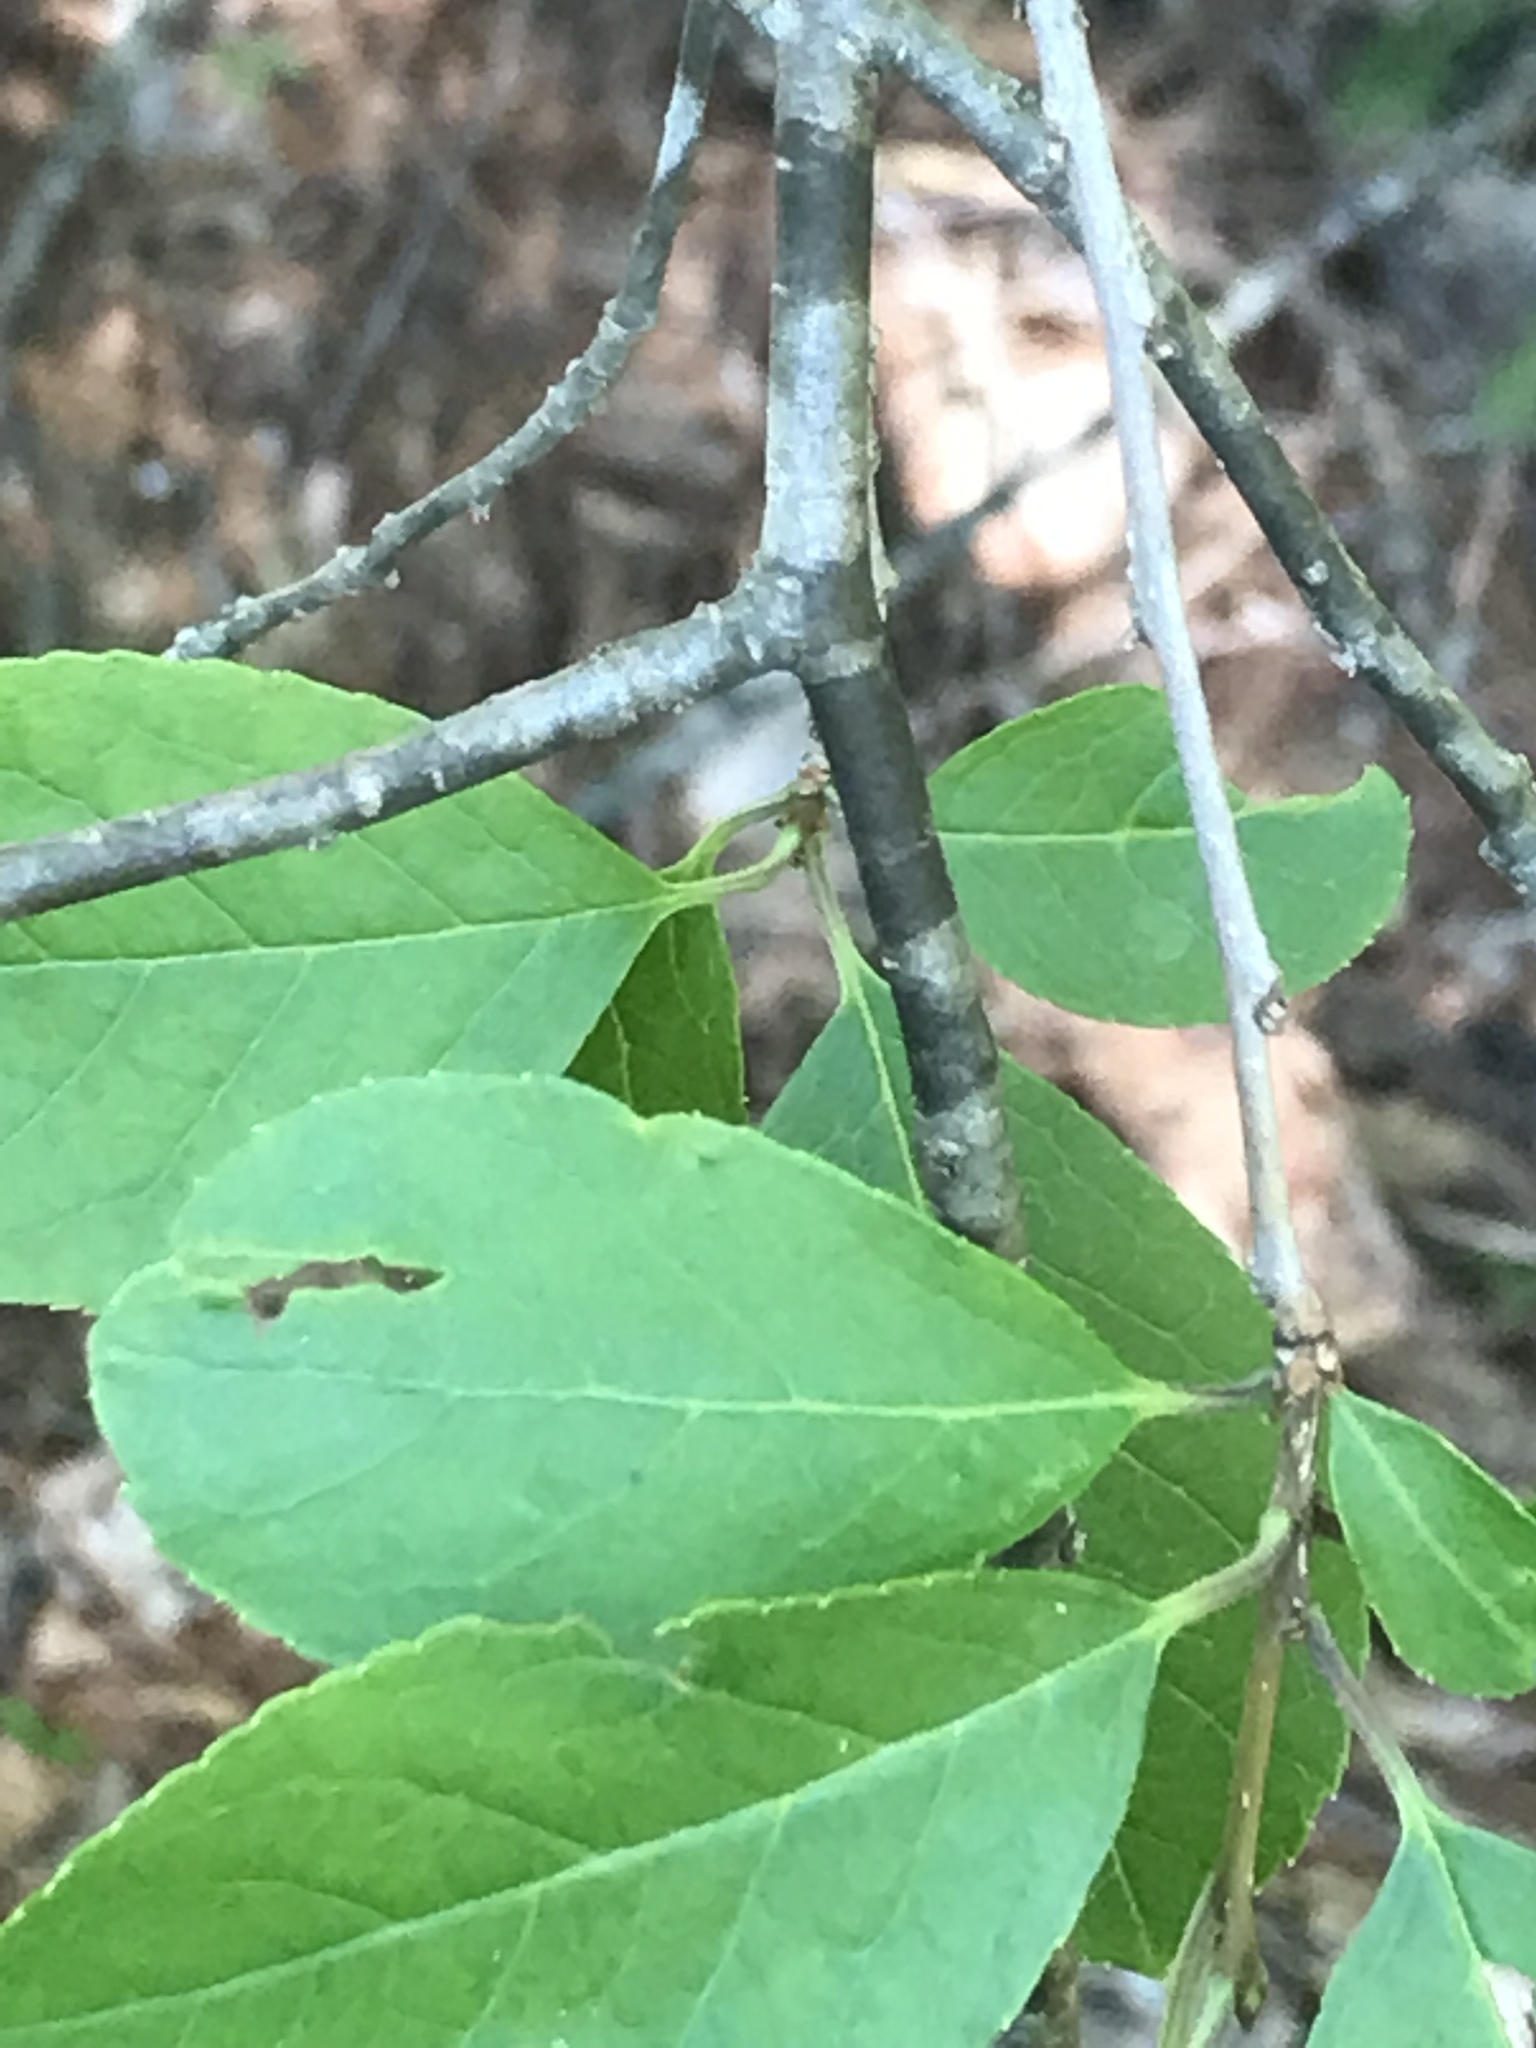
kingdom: Plantae
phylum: Tracheophyta
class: Magnoliopsida
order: Aquifoliales
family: Aquifoliaceae
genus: Ilex
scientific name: Ilex verticillata
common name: Virginia winterberry
